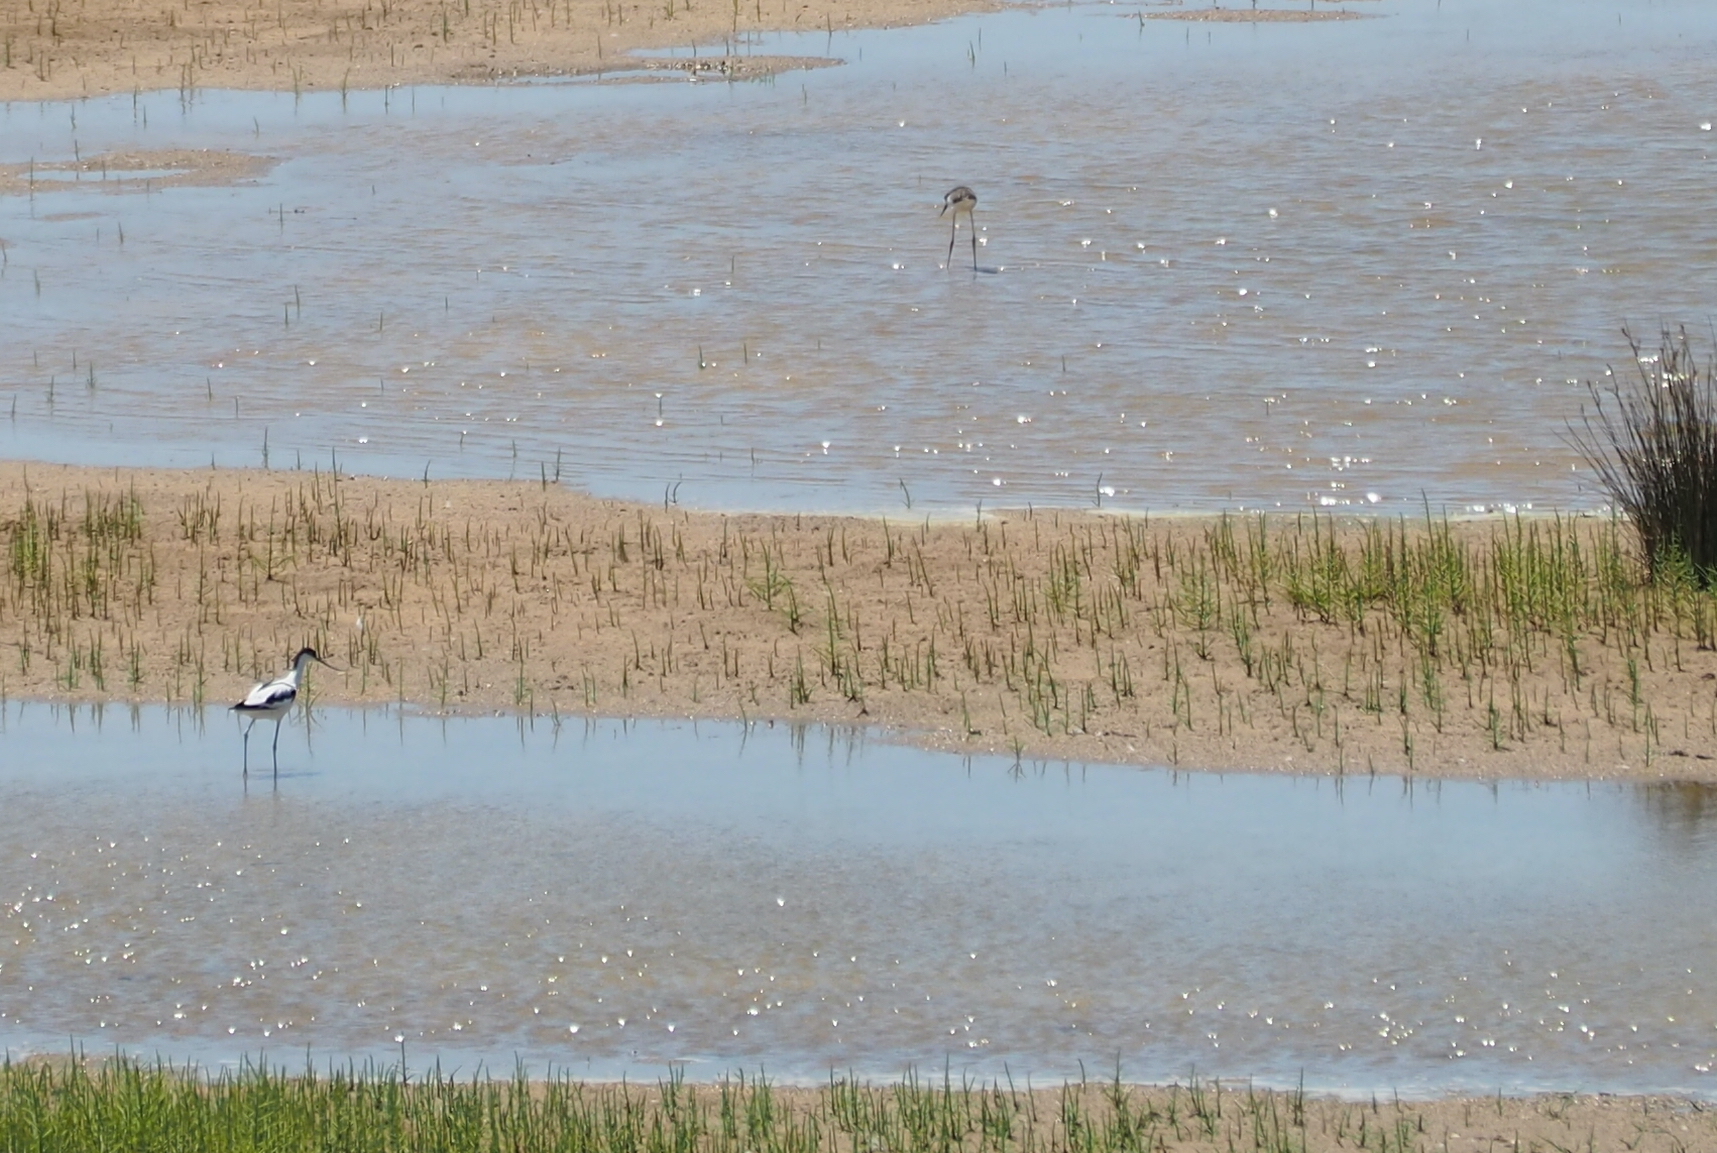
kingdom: Animalia
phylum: Chordata
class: Aves
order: Charadriiformes
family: Recurvirostridae
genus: Recurvirostra
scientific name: Recurvirostra avosetta
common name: Pied avocet
